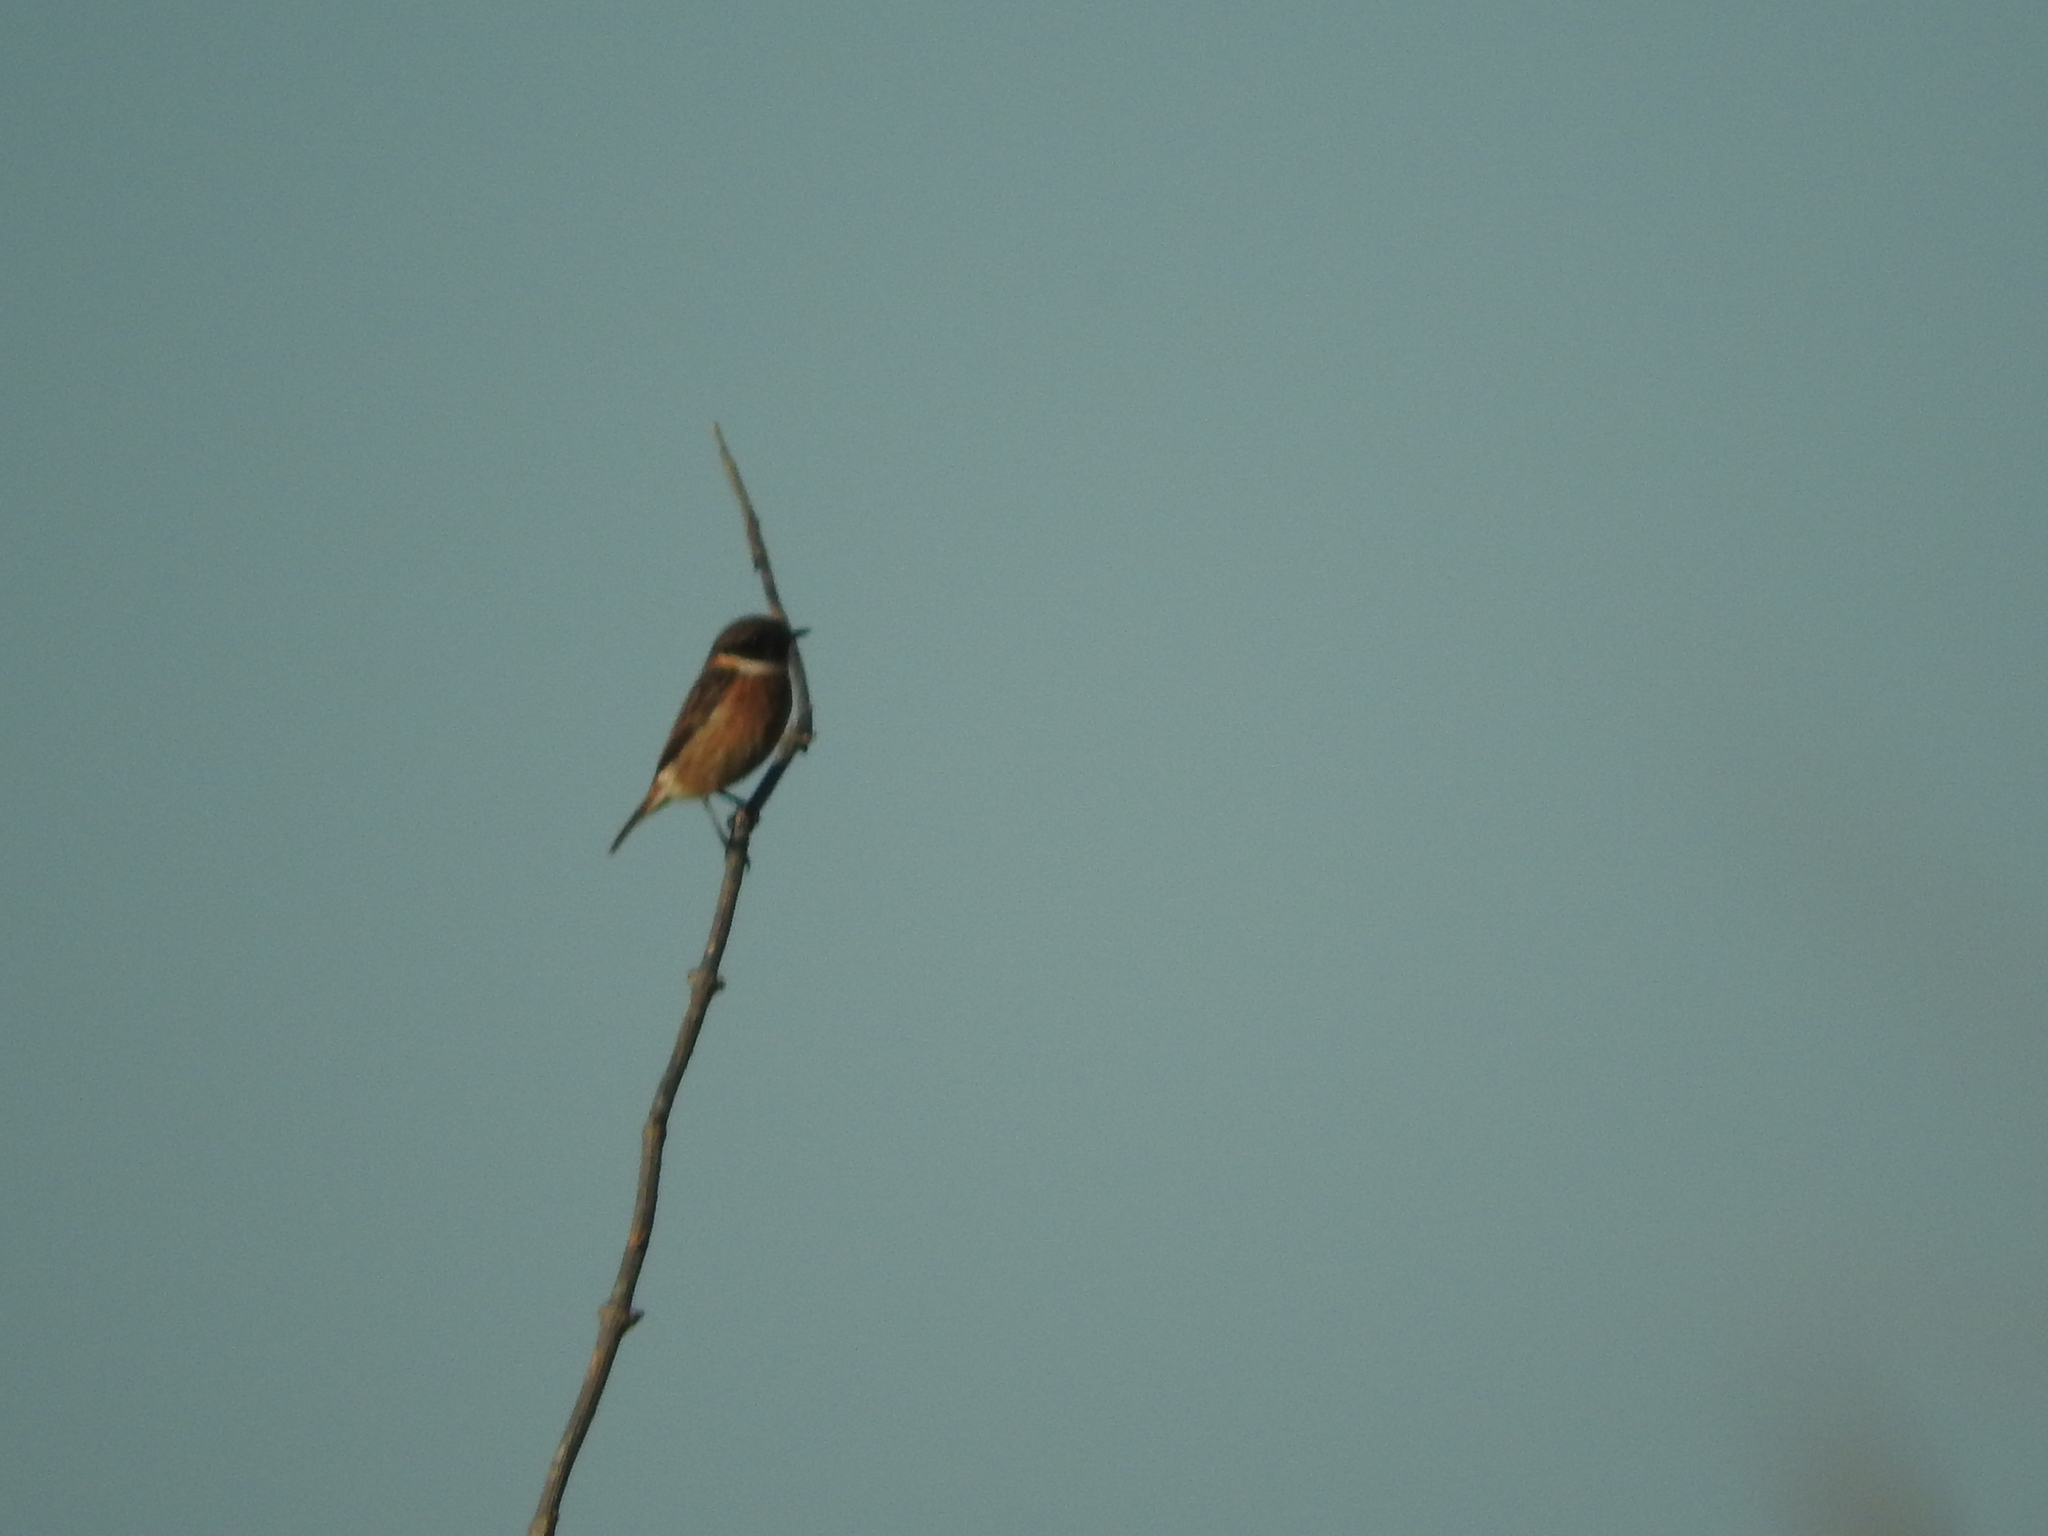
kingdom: Animalia
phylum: Chordata
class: Aves
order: Passeriformes
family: Muscicapidae
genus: Saxicola
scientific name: Saxicola rubicola
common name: European stonechat
